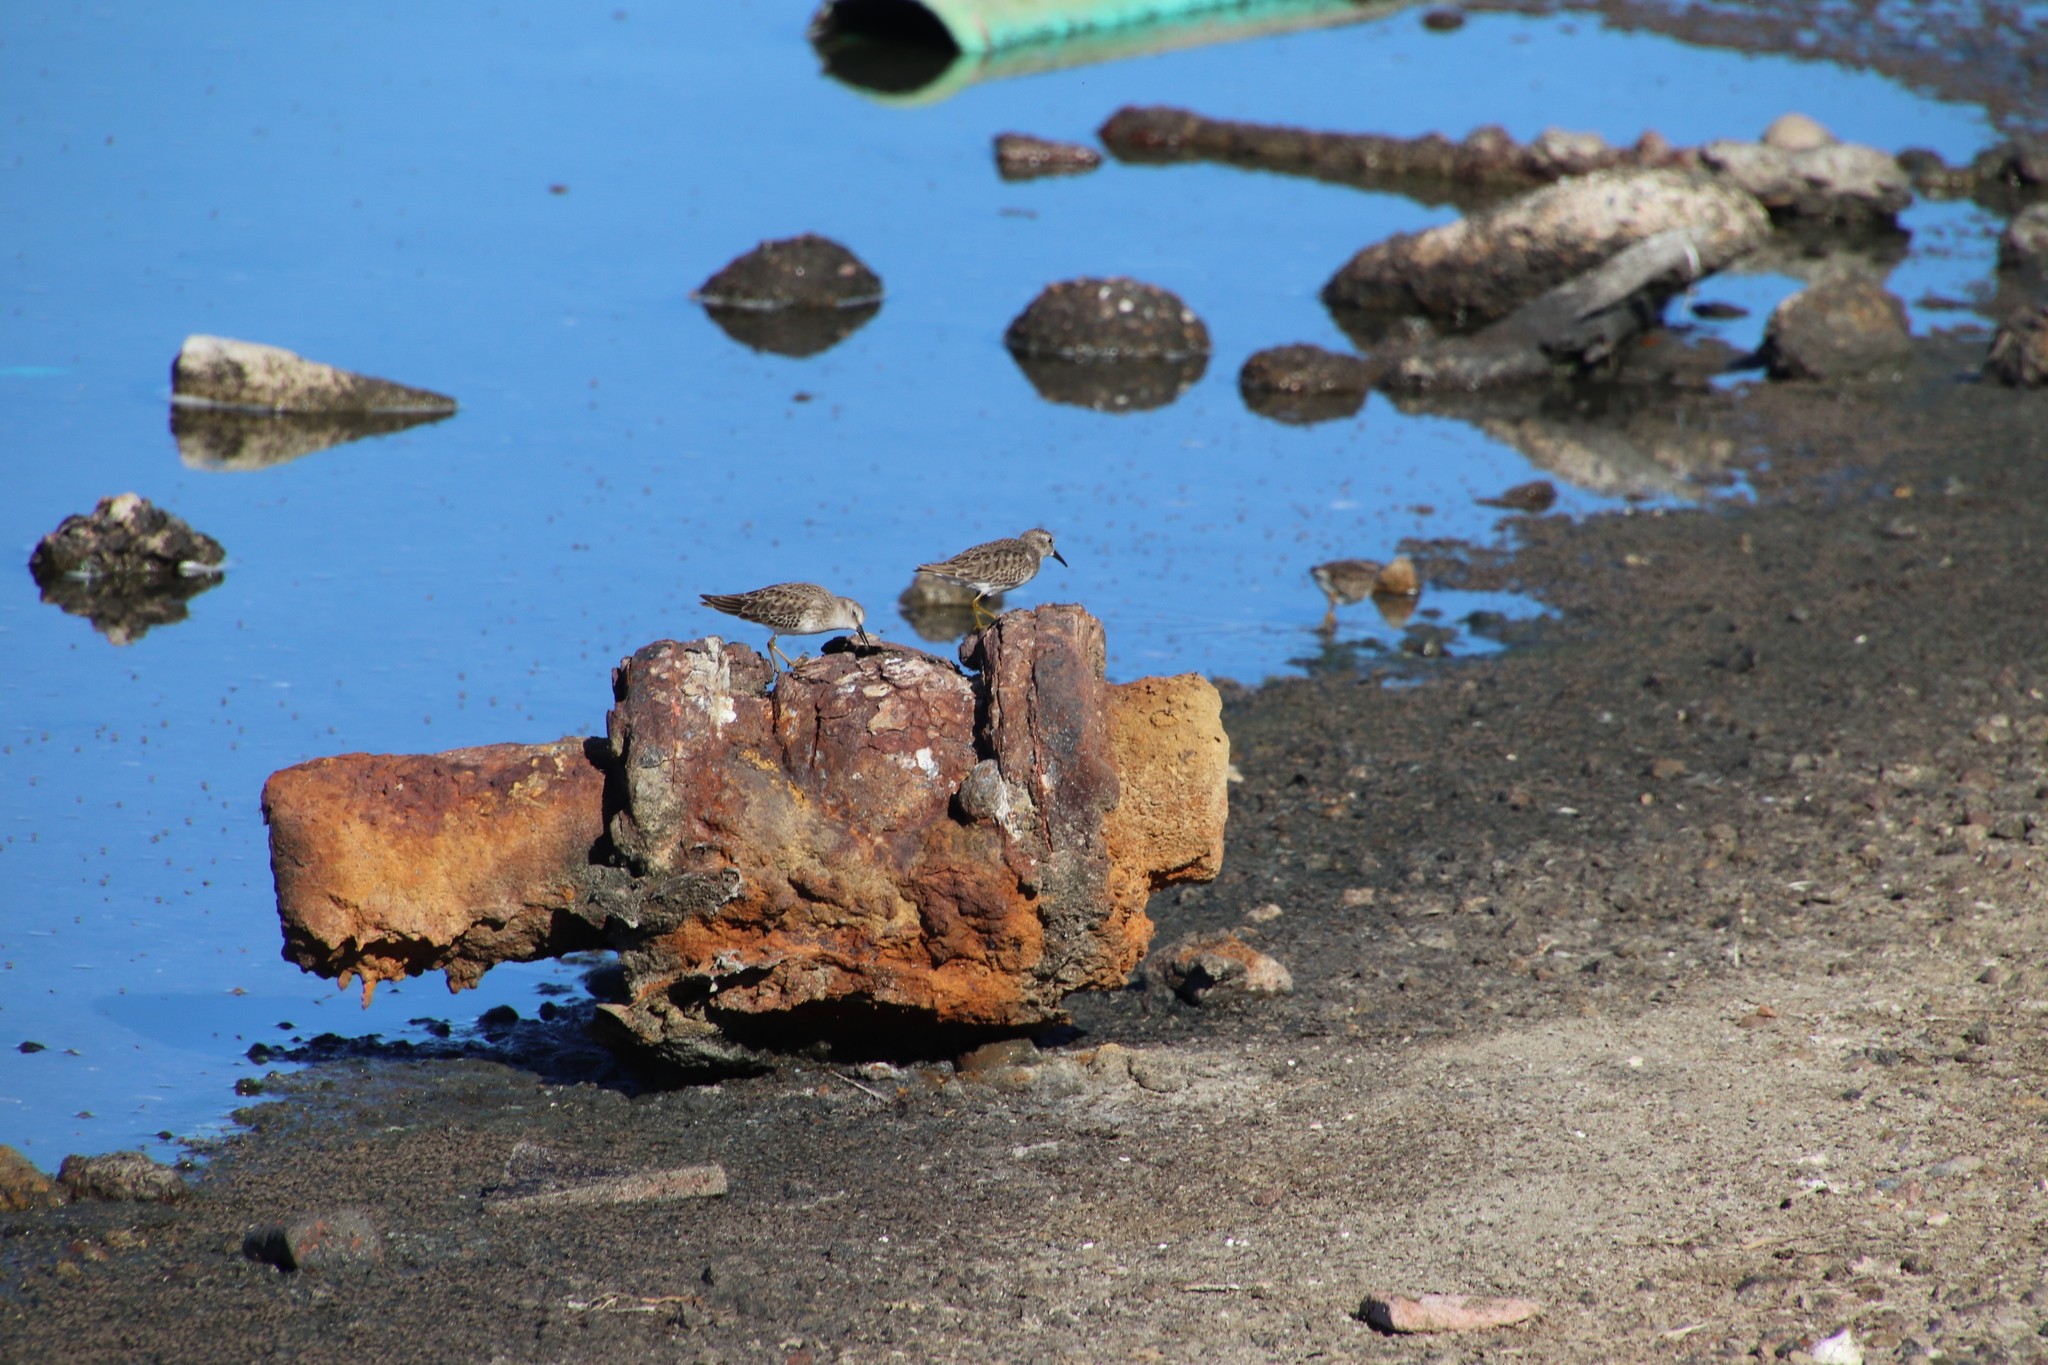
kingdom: Animalia
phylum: Chordata
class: Aves
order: Charadriiformes
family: Scolopacidae
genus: Calidris
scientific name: Calidris minutilla
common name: Least sandpiper
